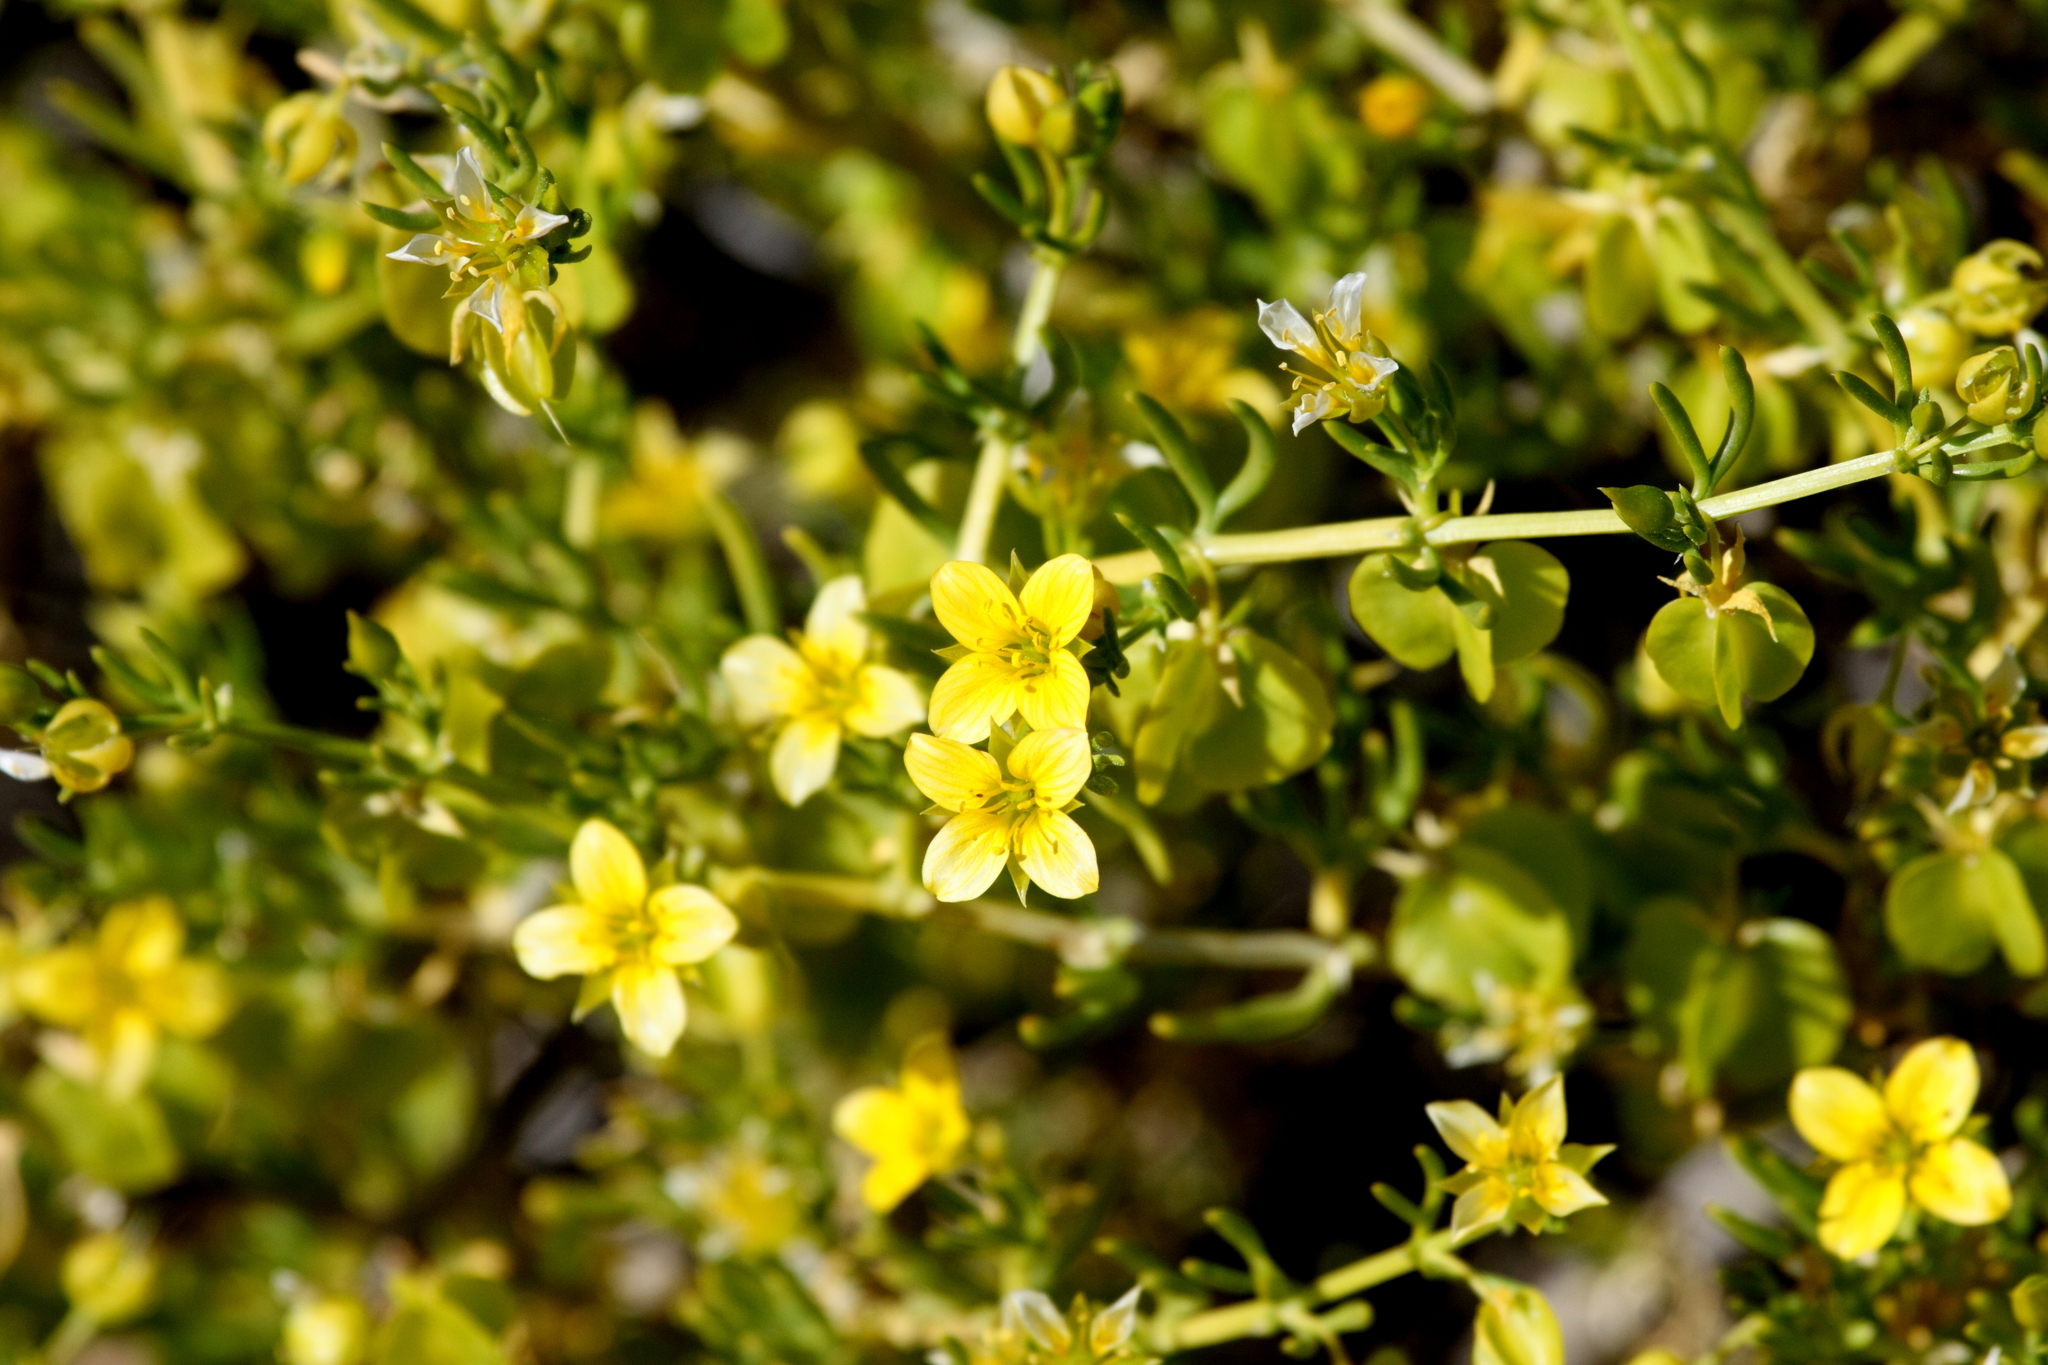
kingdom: Plantae
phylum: Tracheophyta
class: Magnoliopsida
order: Zygophyllales
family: Zygophyllaceae
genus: Roepera
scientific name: Roepera aurantiaca
